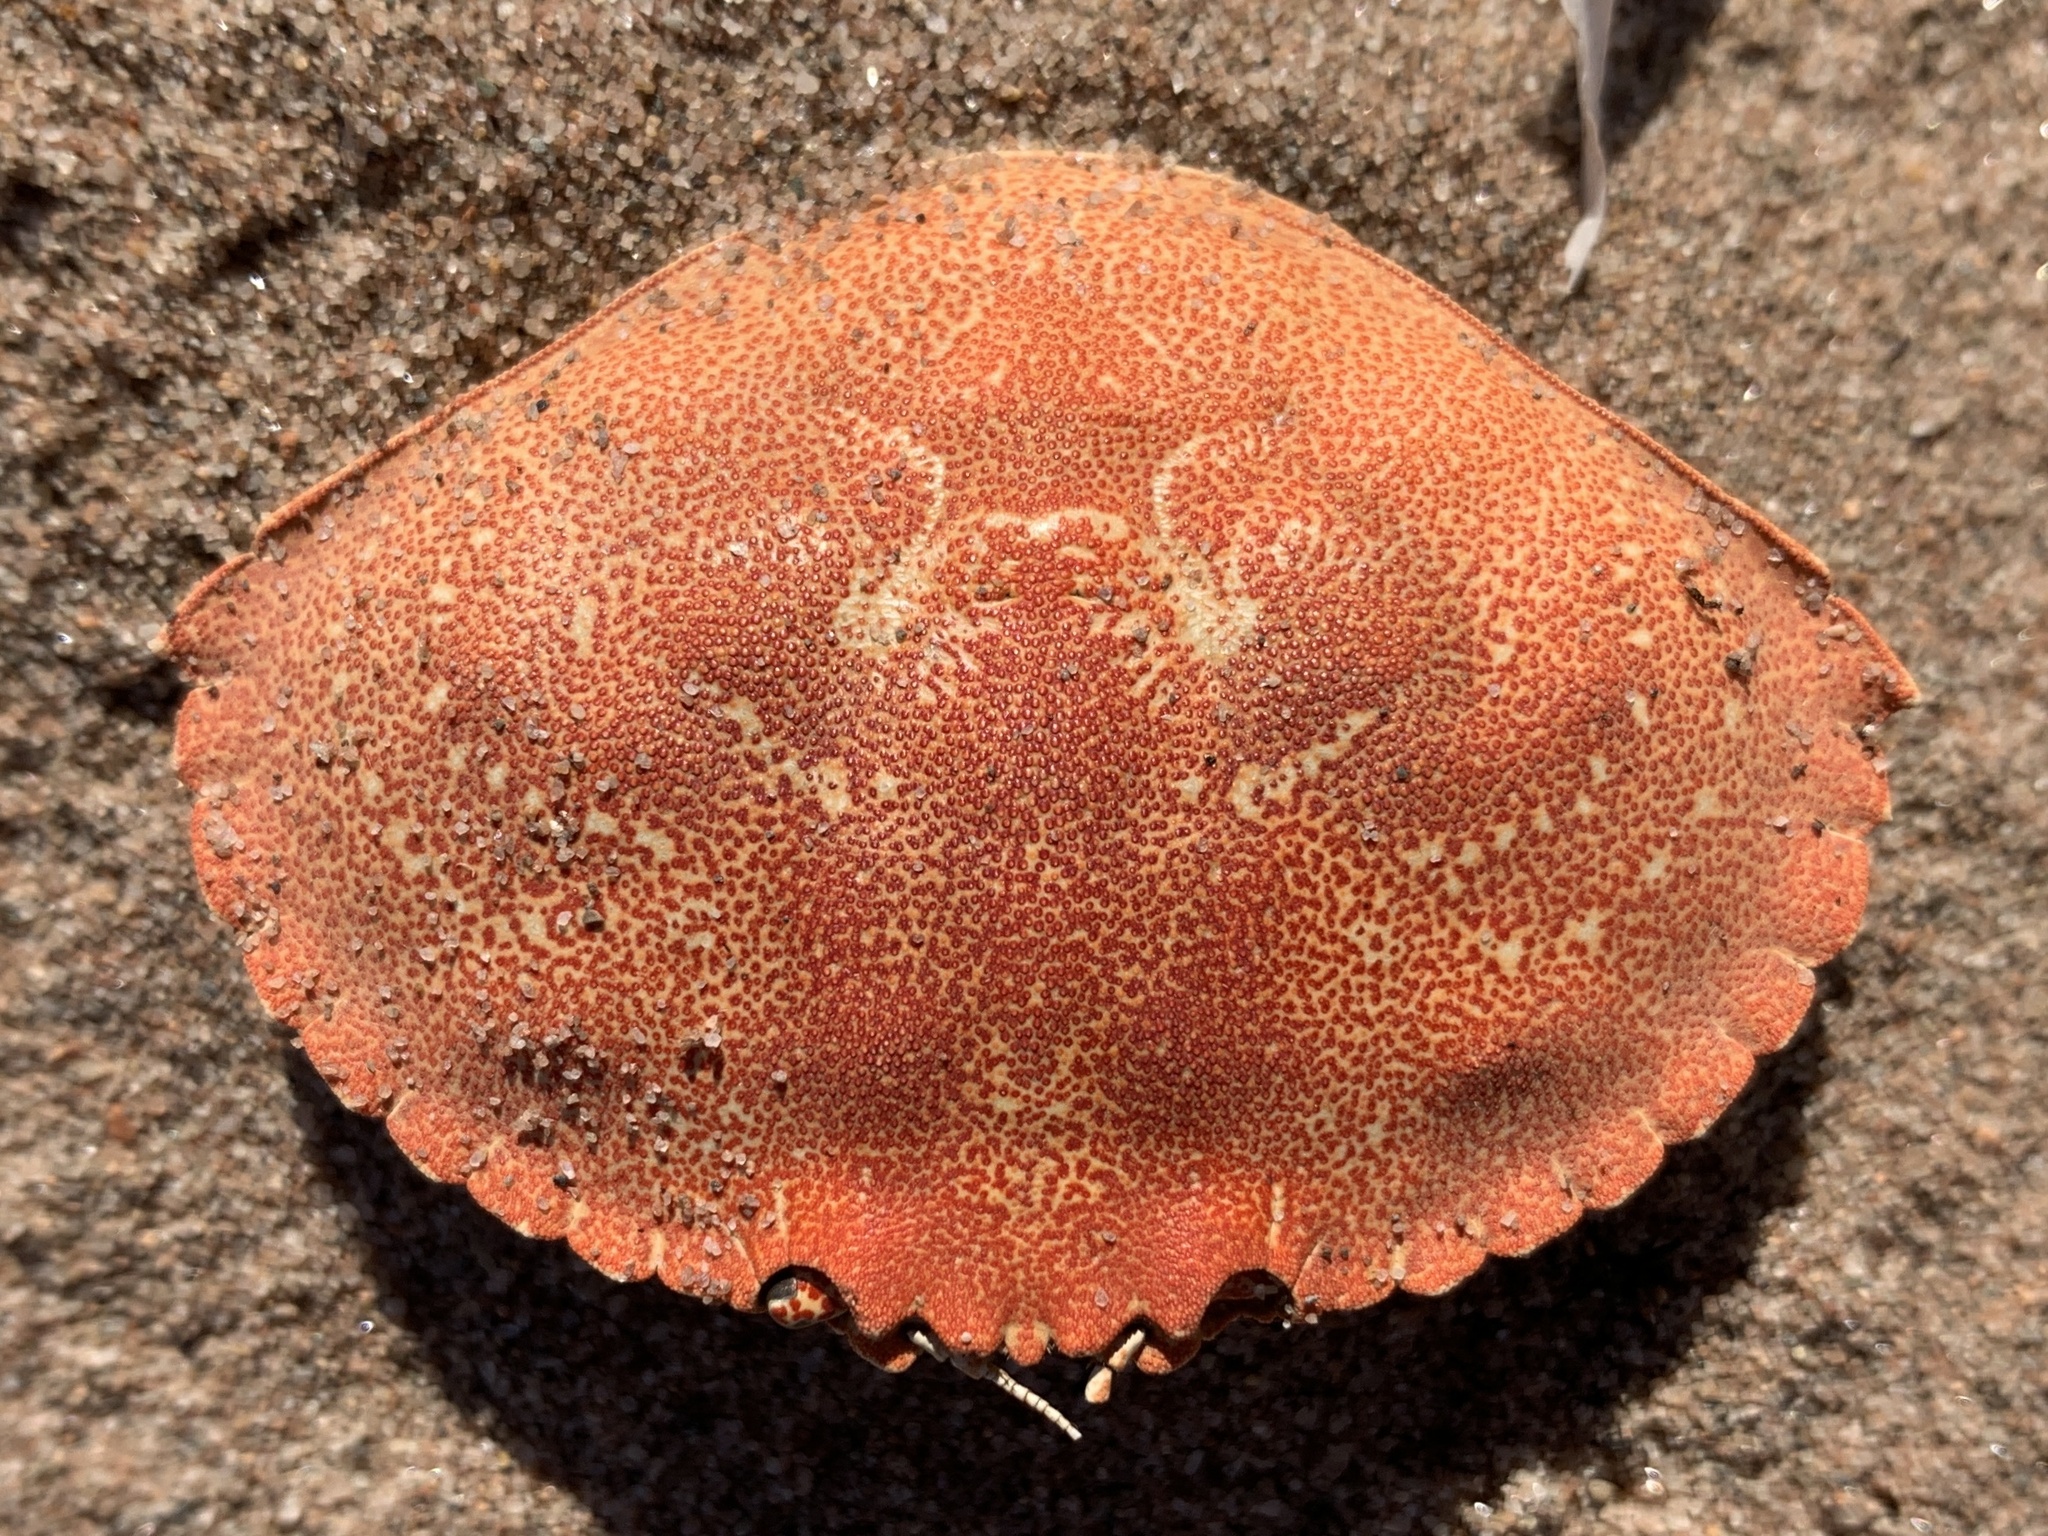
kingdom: Animalia
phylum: Arthropoda
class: Malacostraca
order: Decapoda
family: Cancridae
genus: Cancer
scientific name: Cancer irroratus
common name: Atlantic rock crab
